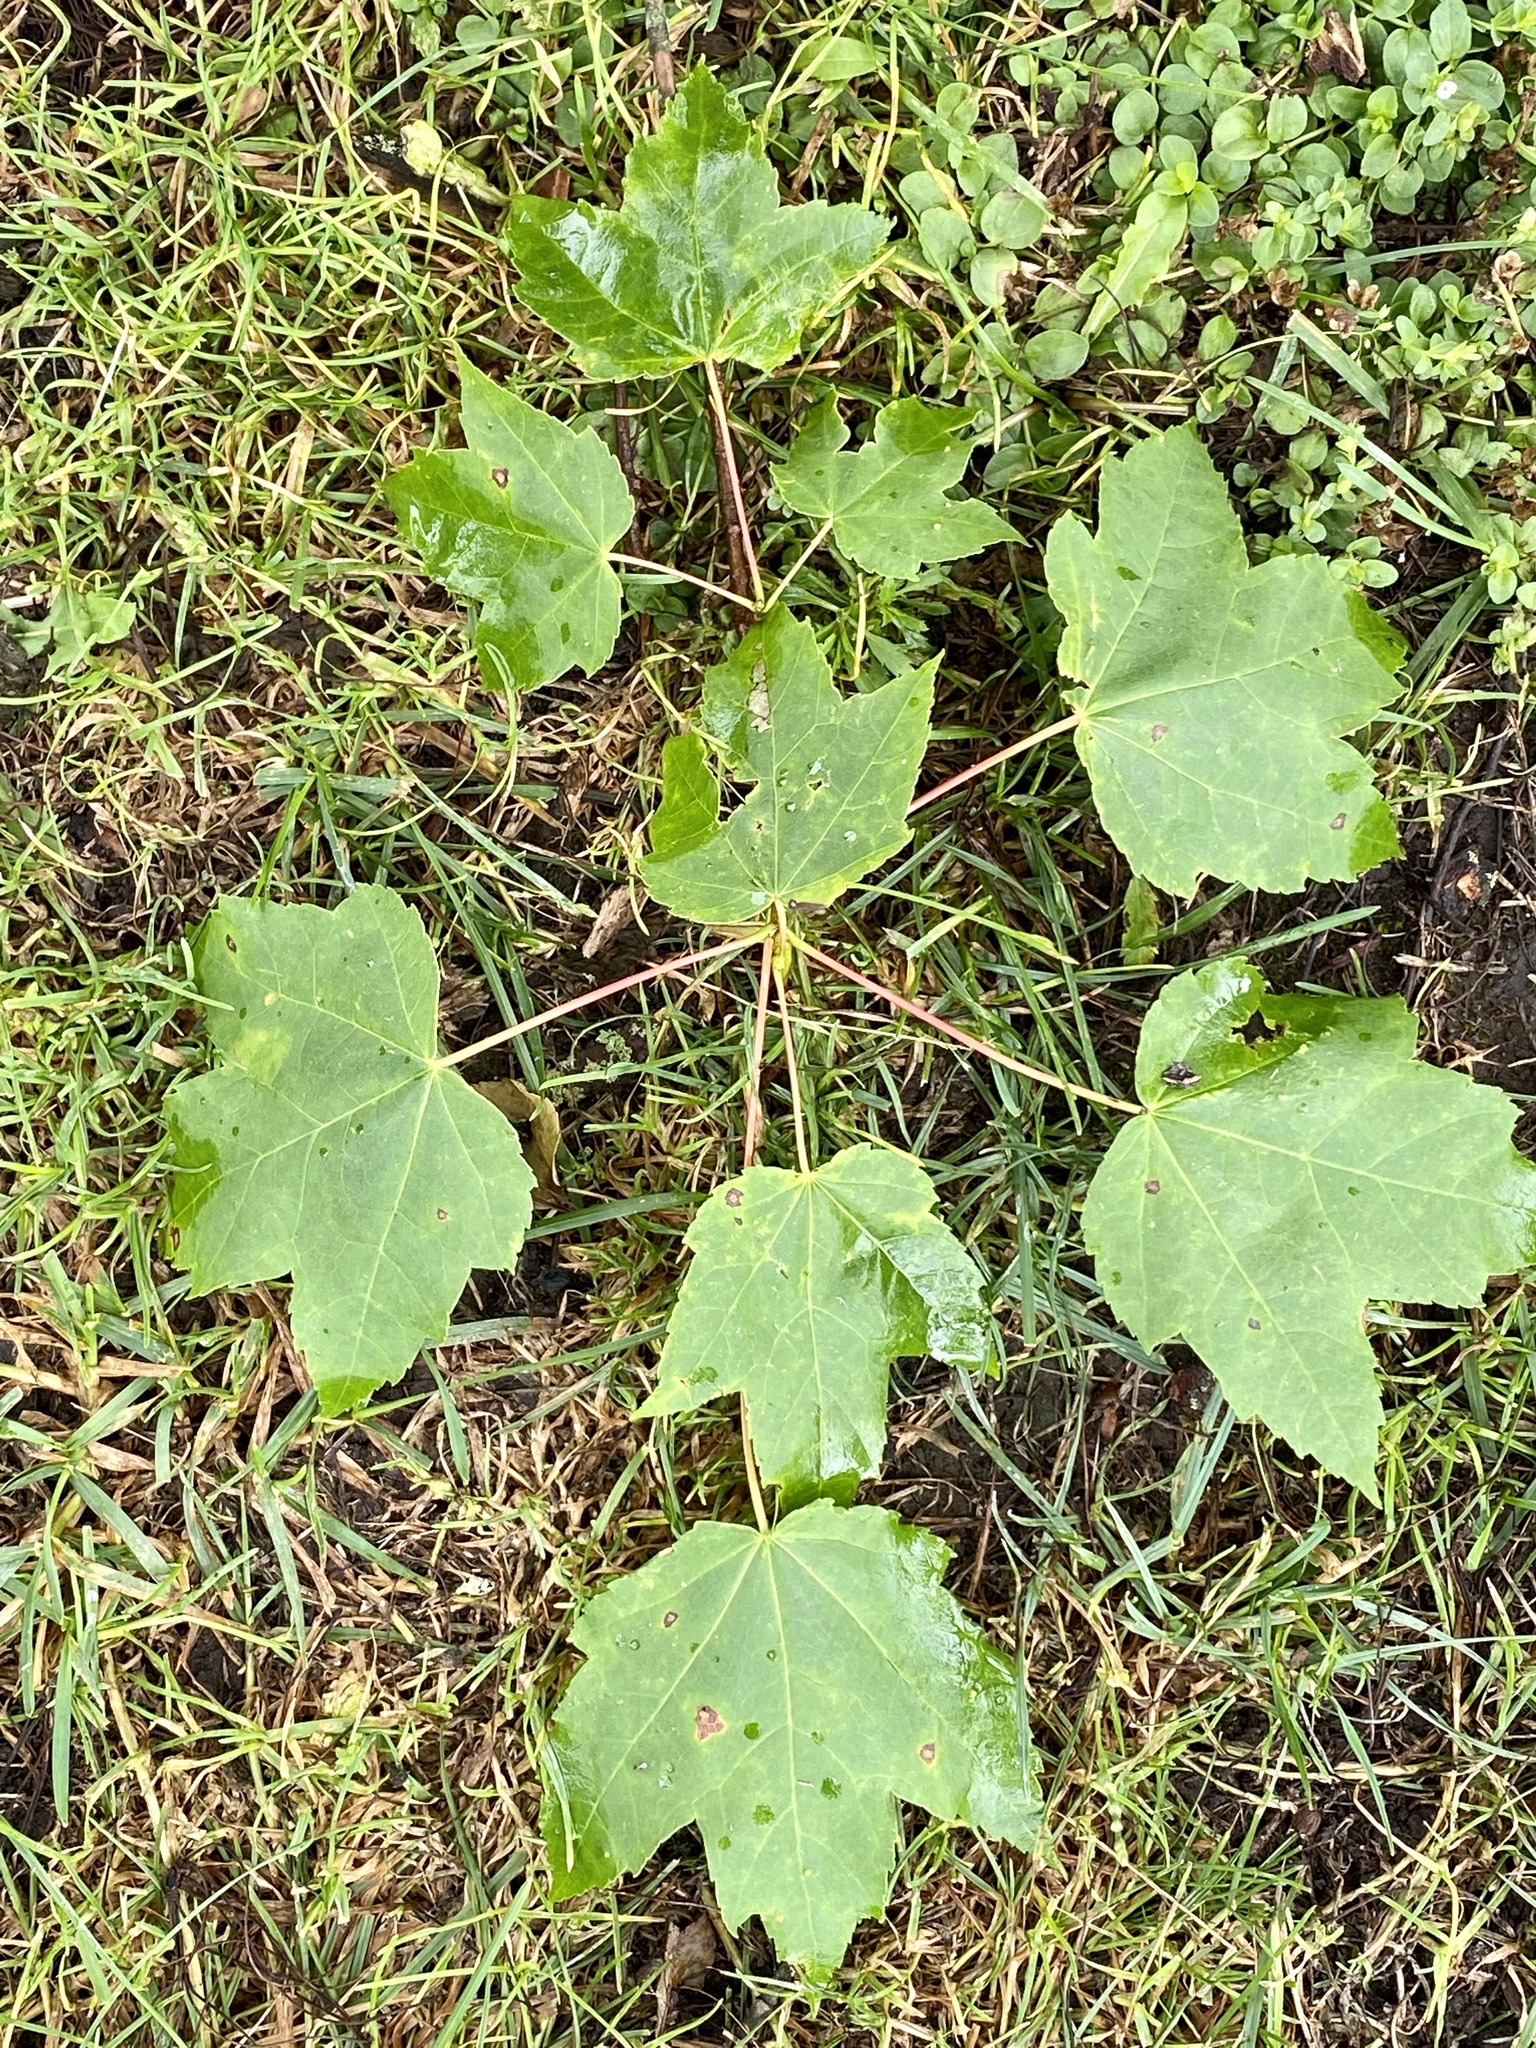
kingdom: Plantae
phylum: Tracheophyta
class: Magnoliopsida
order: Sapindales
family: Sapindaceae
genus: Acer
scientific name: Acer rubrum
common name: Red maple
